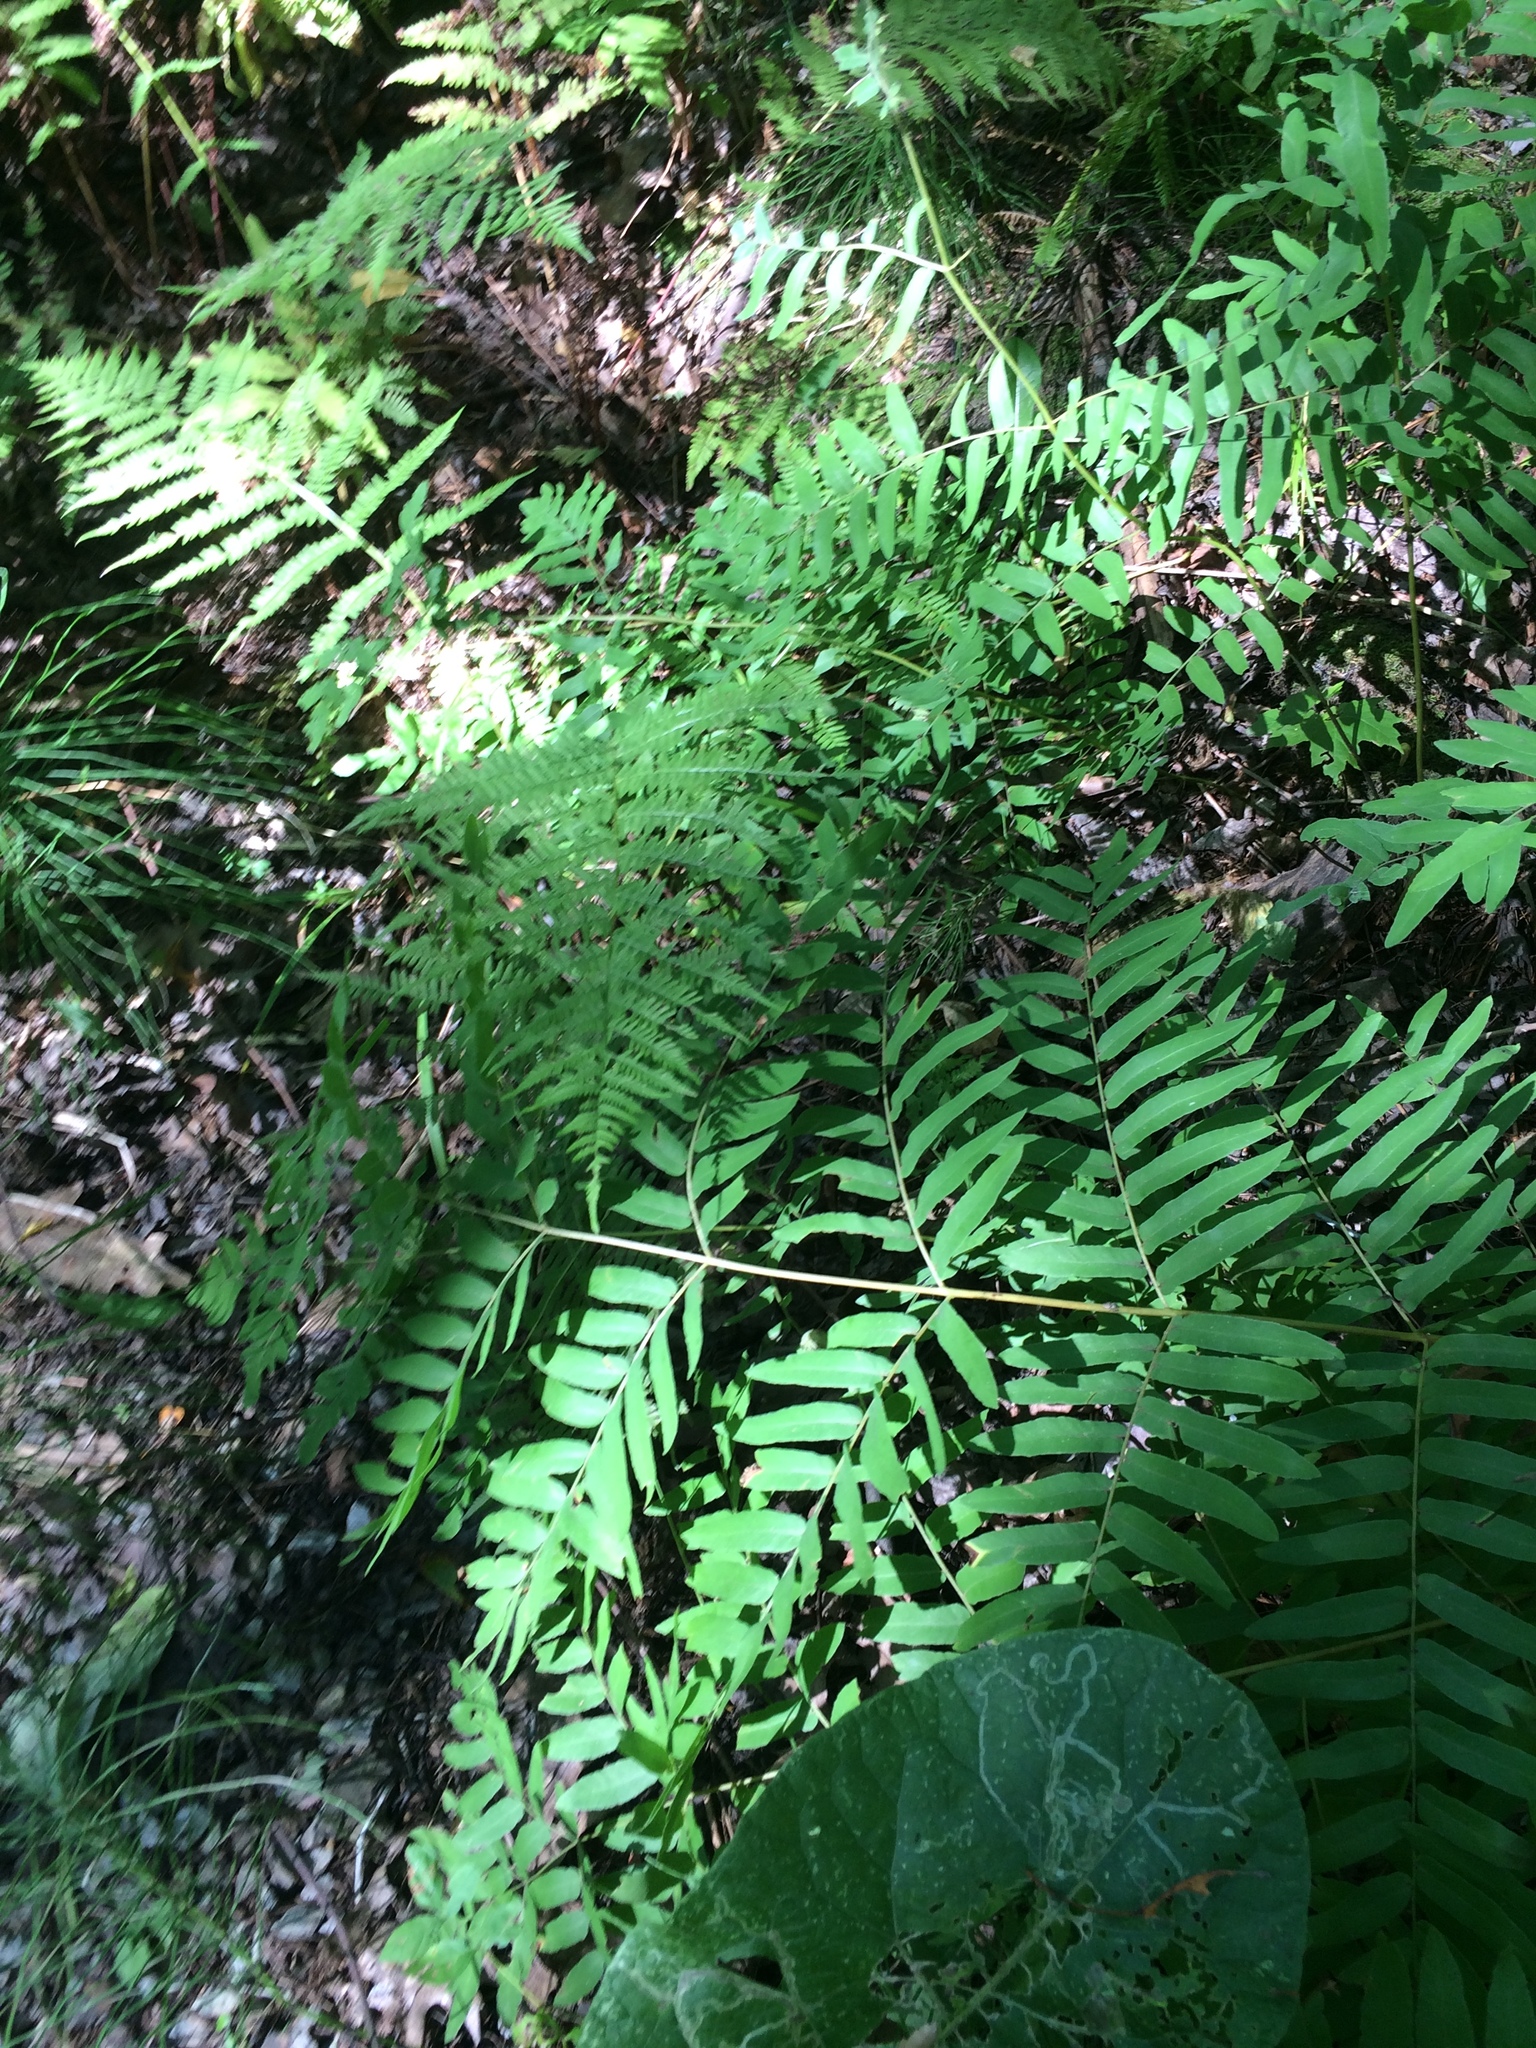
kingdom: Plantae
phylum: Tracheophyta
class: Polypodiopsida
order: Osmundales
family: Osmundaceae
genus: Osmunda
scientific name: Osmunda spectabilis
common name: American royal fern
